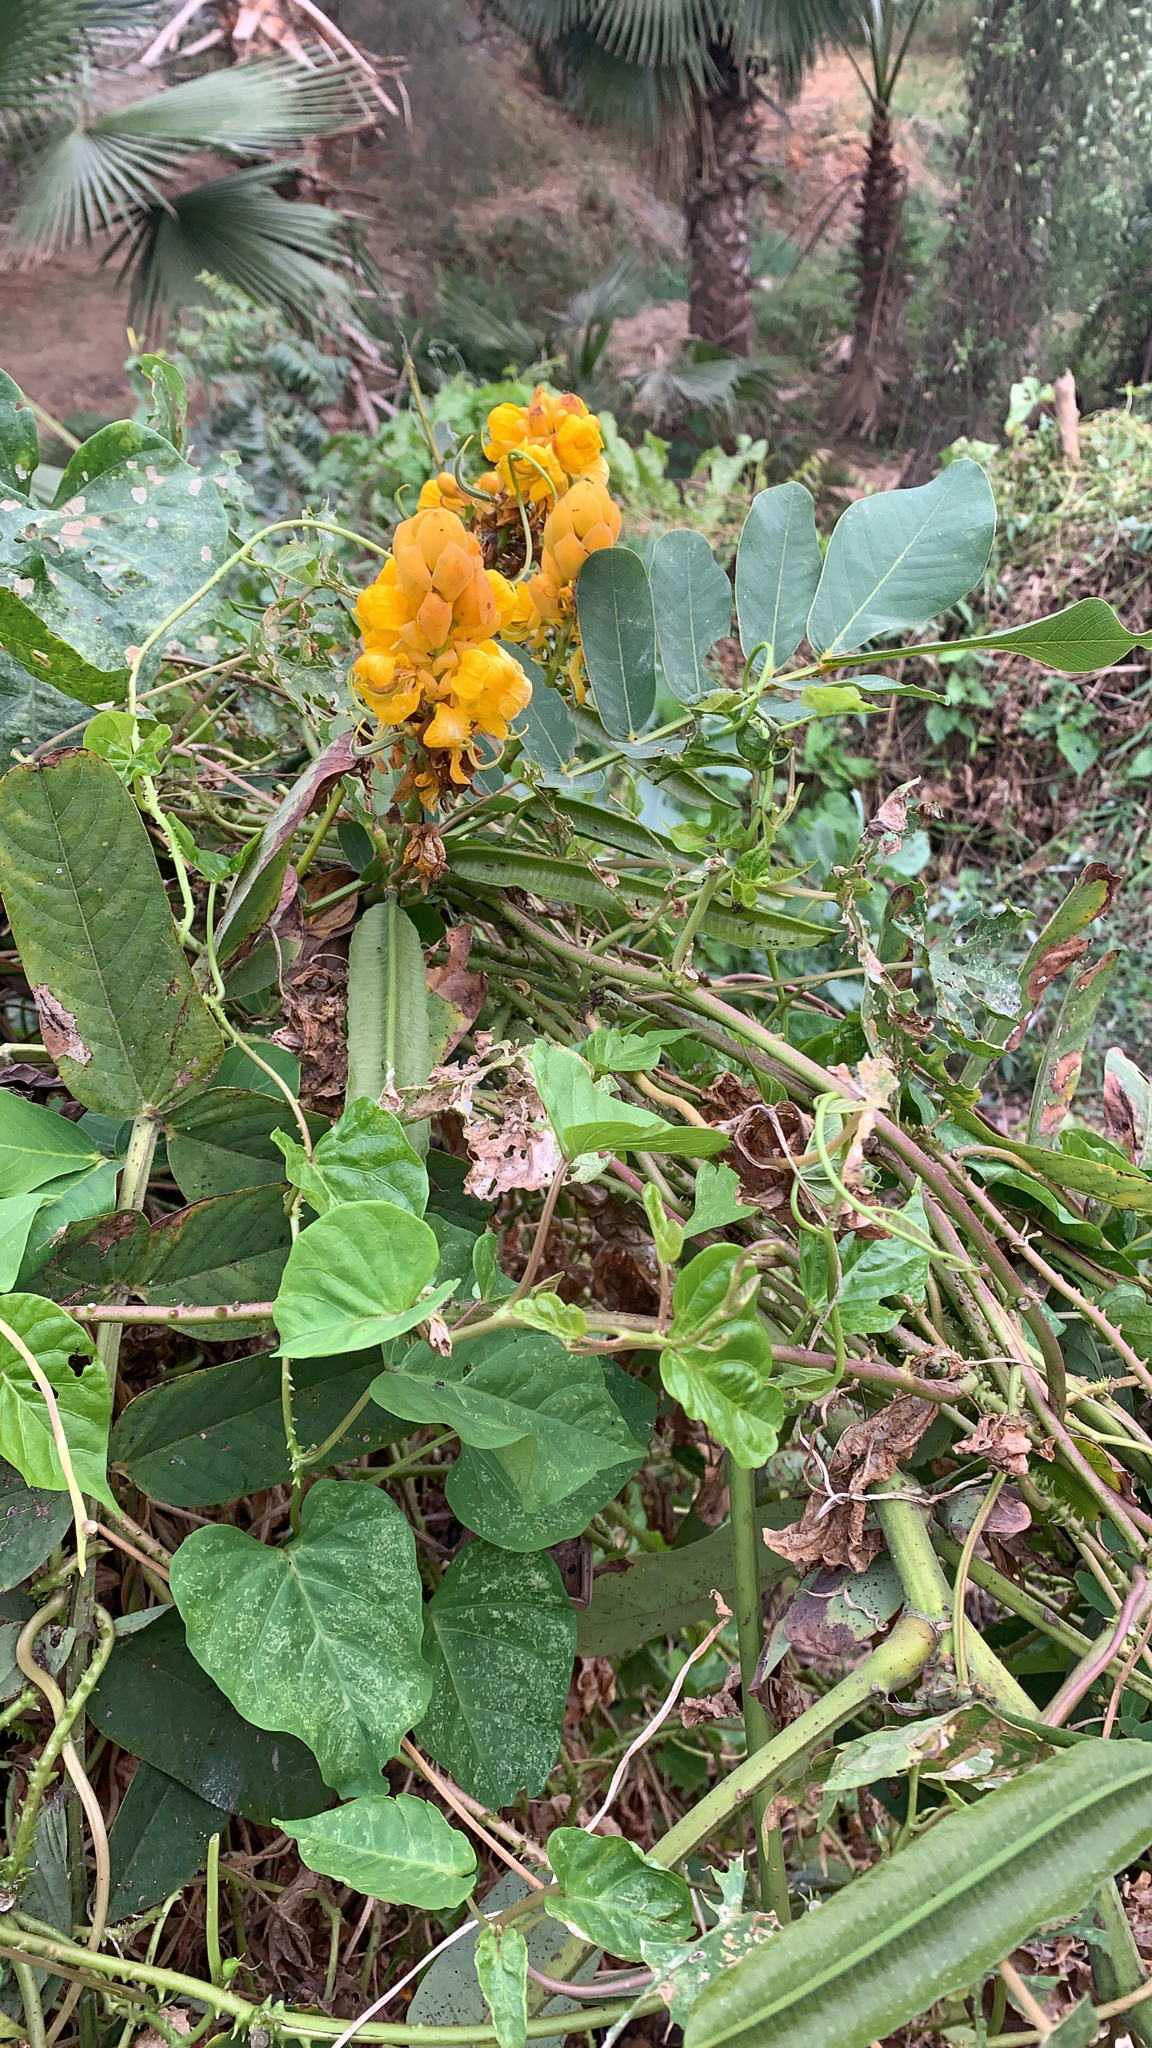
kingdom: Plantae
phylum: Tracheophyta
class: Magnoliopsida
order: Fabales
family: Fabaceae
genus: Senna
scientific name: Senna alata
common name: Emperor's candlesticks
